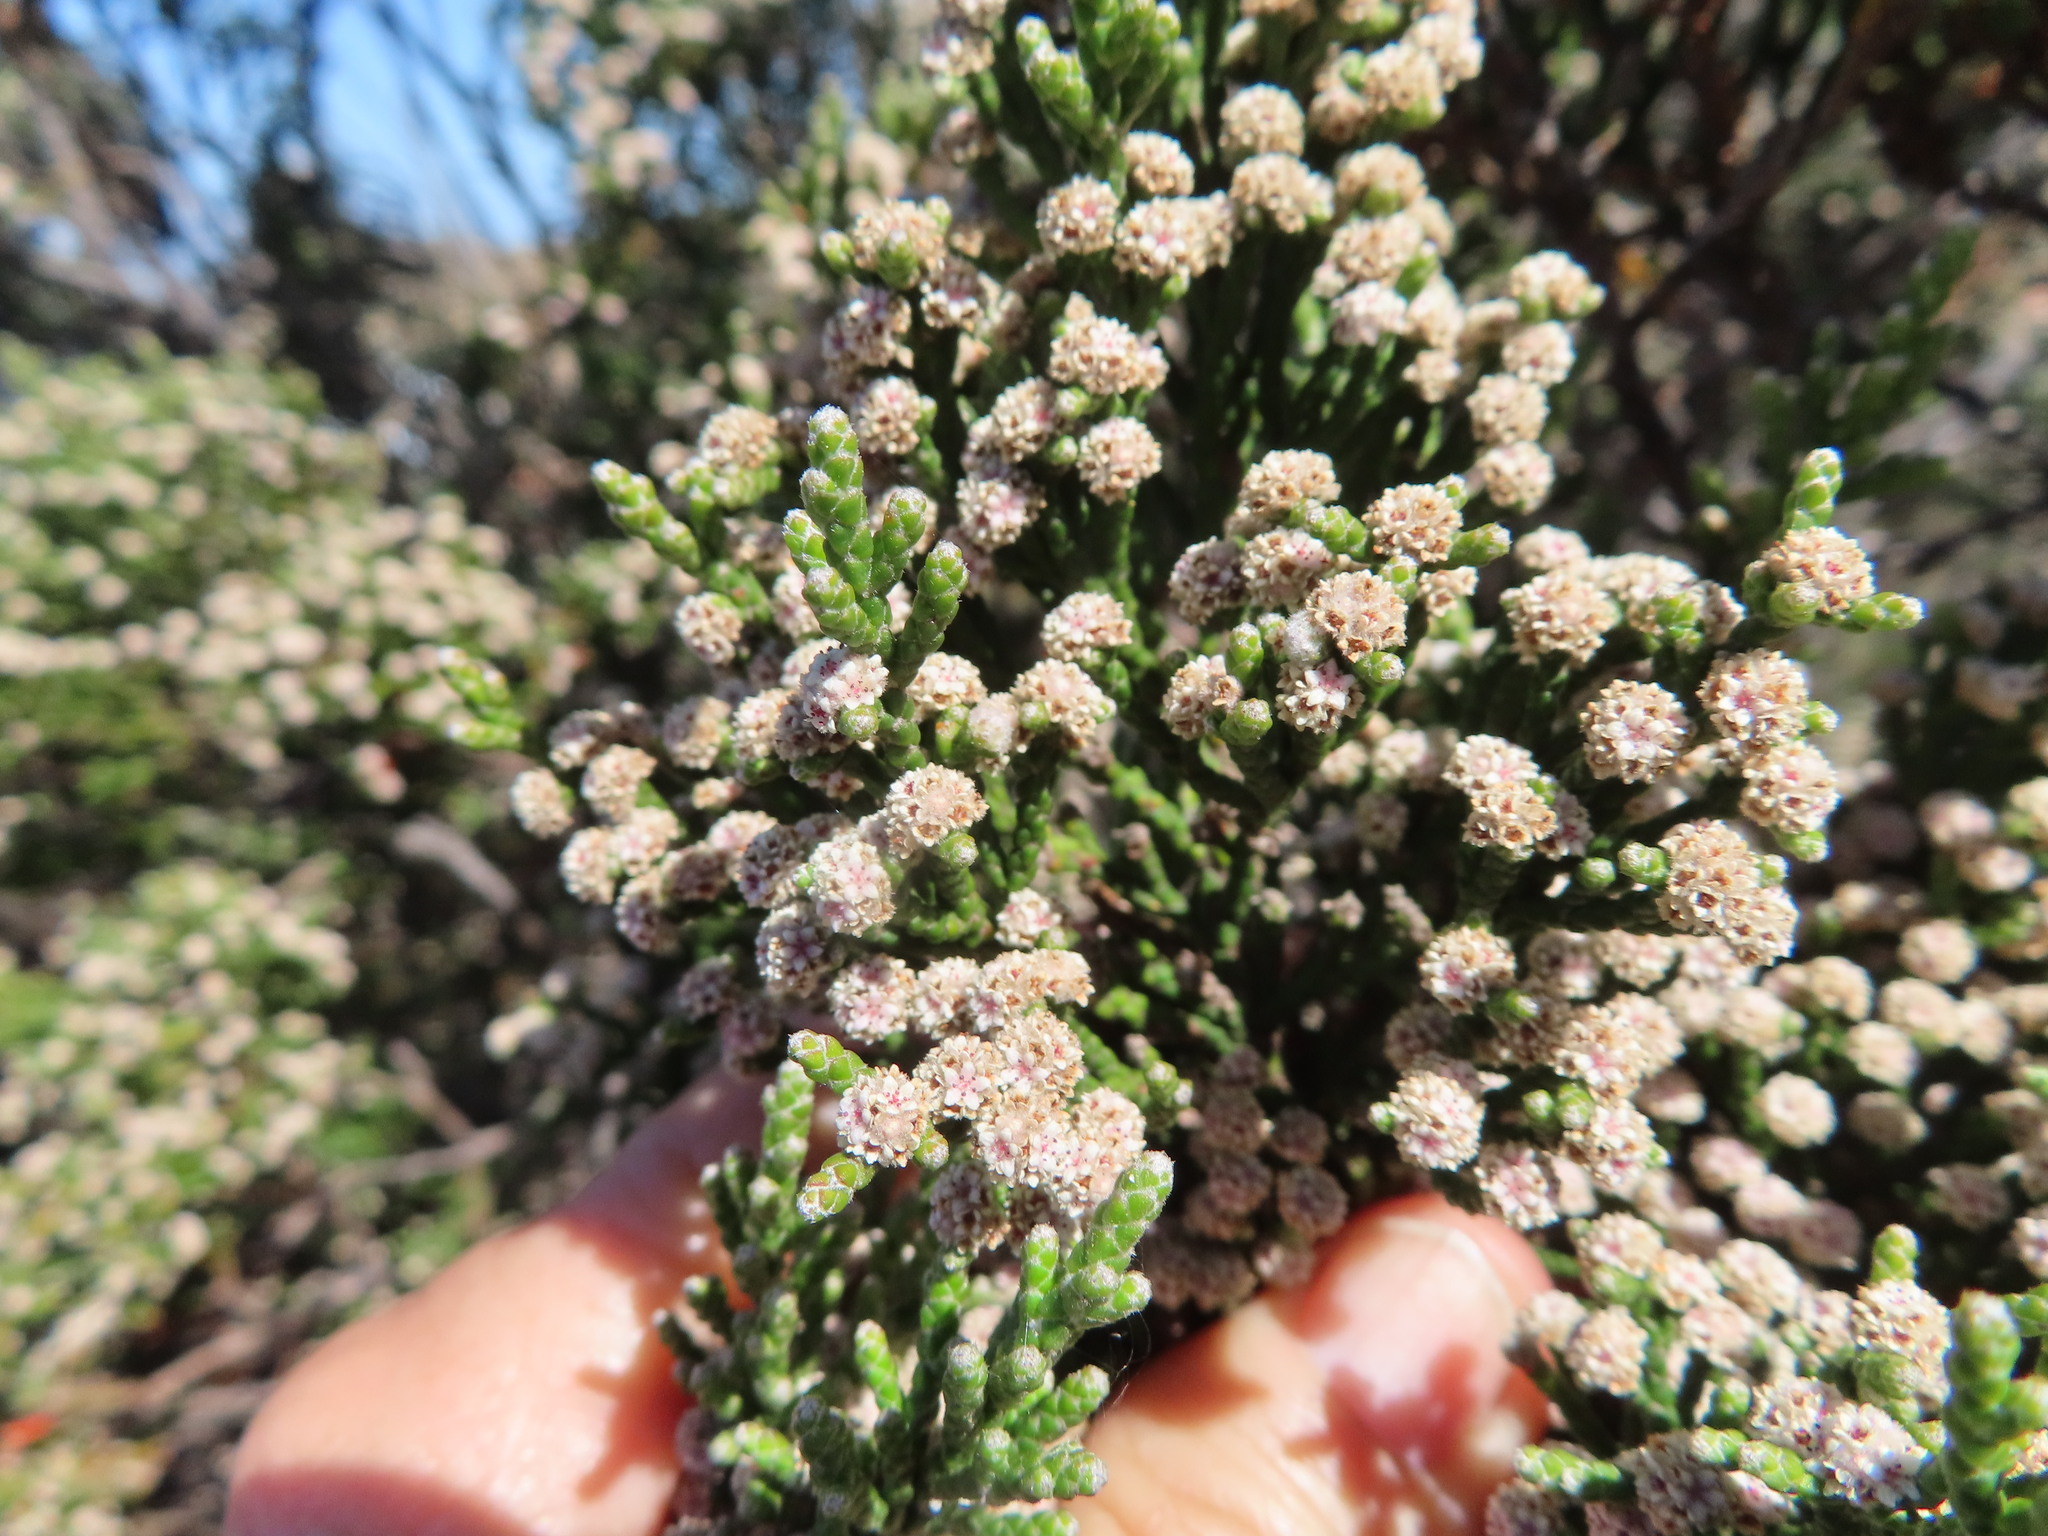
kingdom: Plantae
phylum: Tracheophyta
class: Magnoliopsida
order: Bruniales
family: Bruniaceae
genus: Brunia
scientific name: Brunia microphylla
